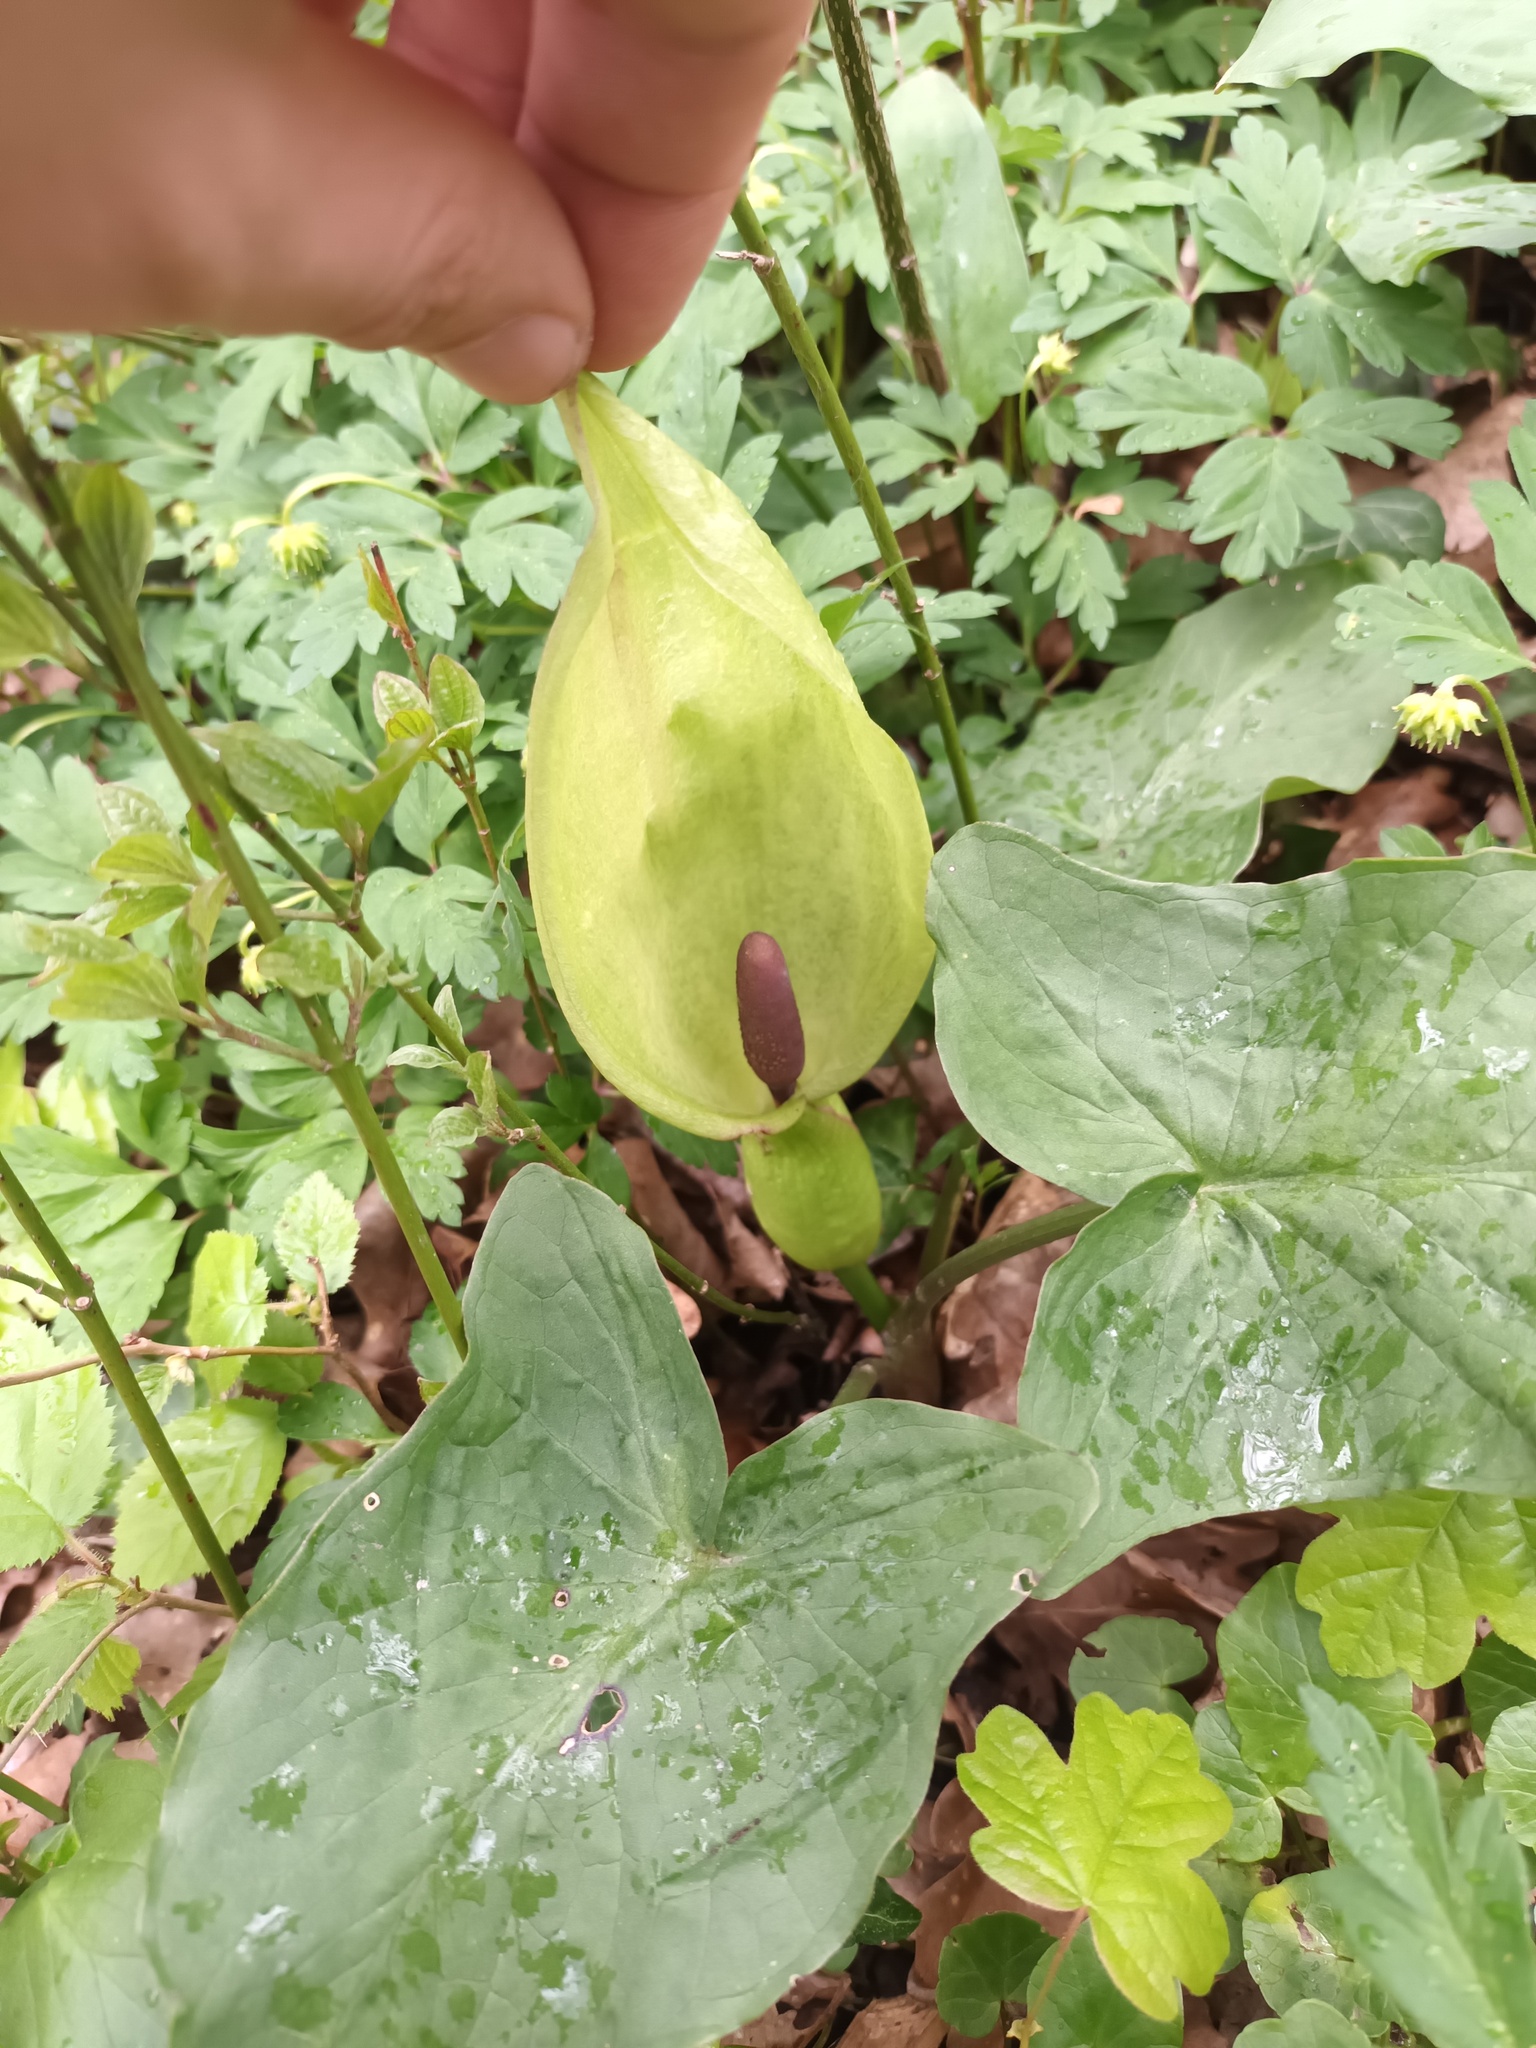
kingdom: Plantae
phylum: Tracheophyta
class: Liliopsida
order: Alismatales
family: Araceae
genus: Arum
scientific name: Arum maculatum
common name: Lords-and-ladies
